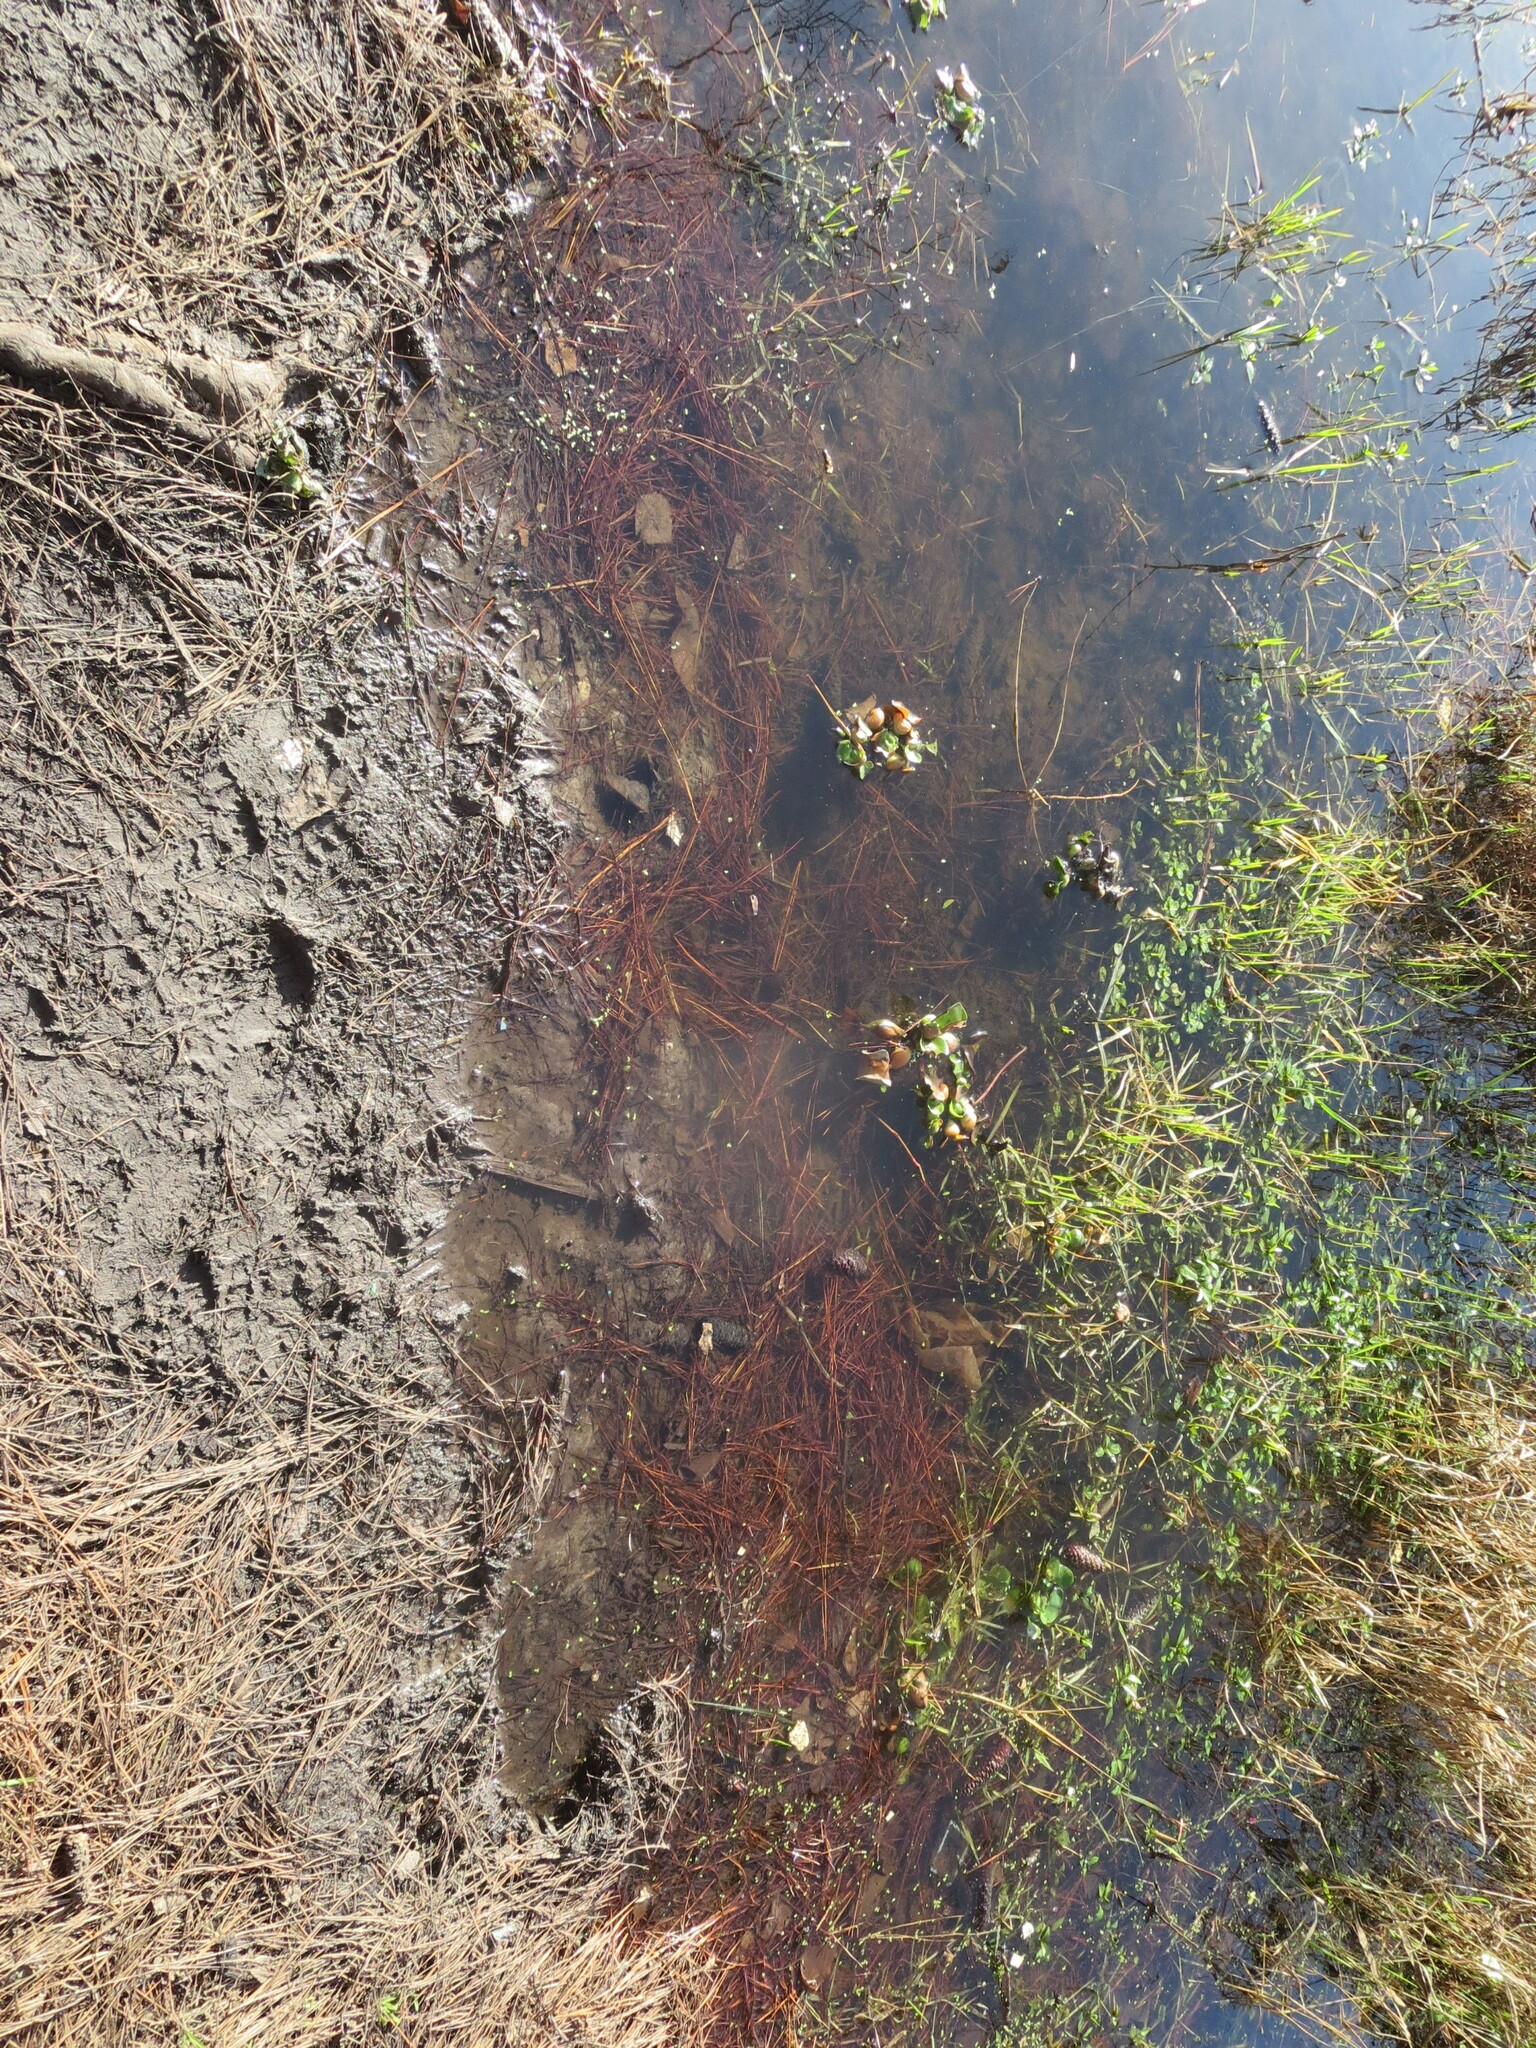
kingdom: Plantae
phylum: Tracheophyta
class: Liliopsida
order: Commelinales
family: Pontederiaceae
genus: Pontederia
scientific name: Pontederia crassipes
